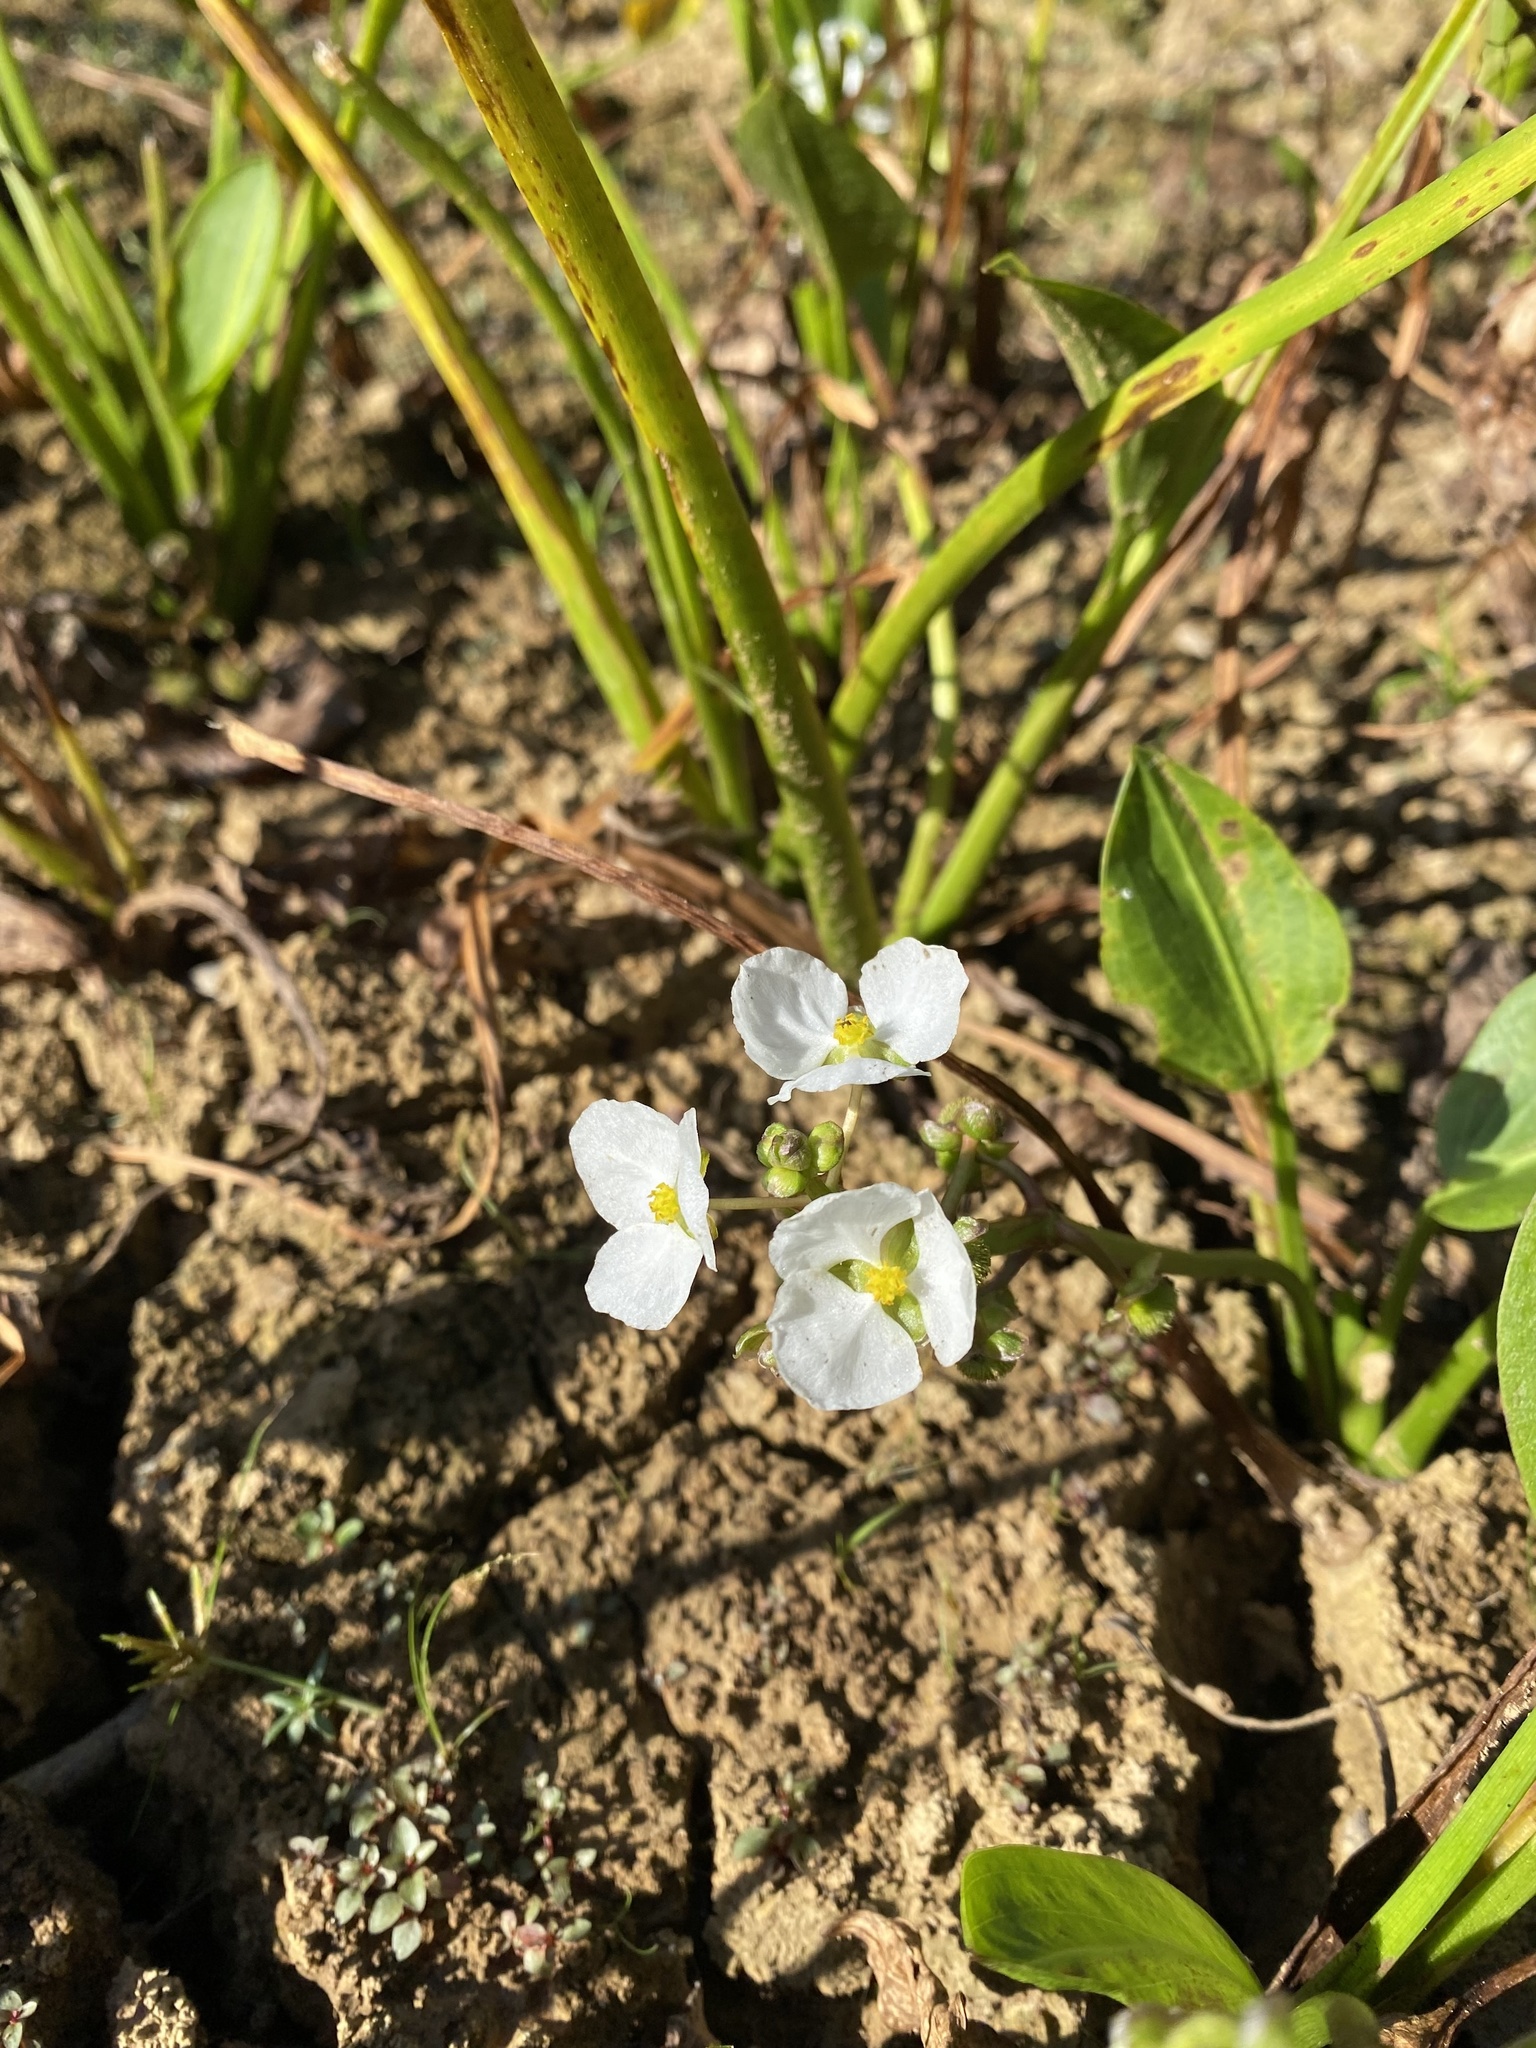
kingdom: Plantae
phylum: Tracheophyta
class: Liliopsida
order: Alismatales
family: Alismataceae
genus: Sagittaria
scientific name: Sagittaria platyphylla
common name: Broad-leaf arrowhead
